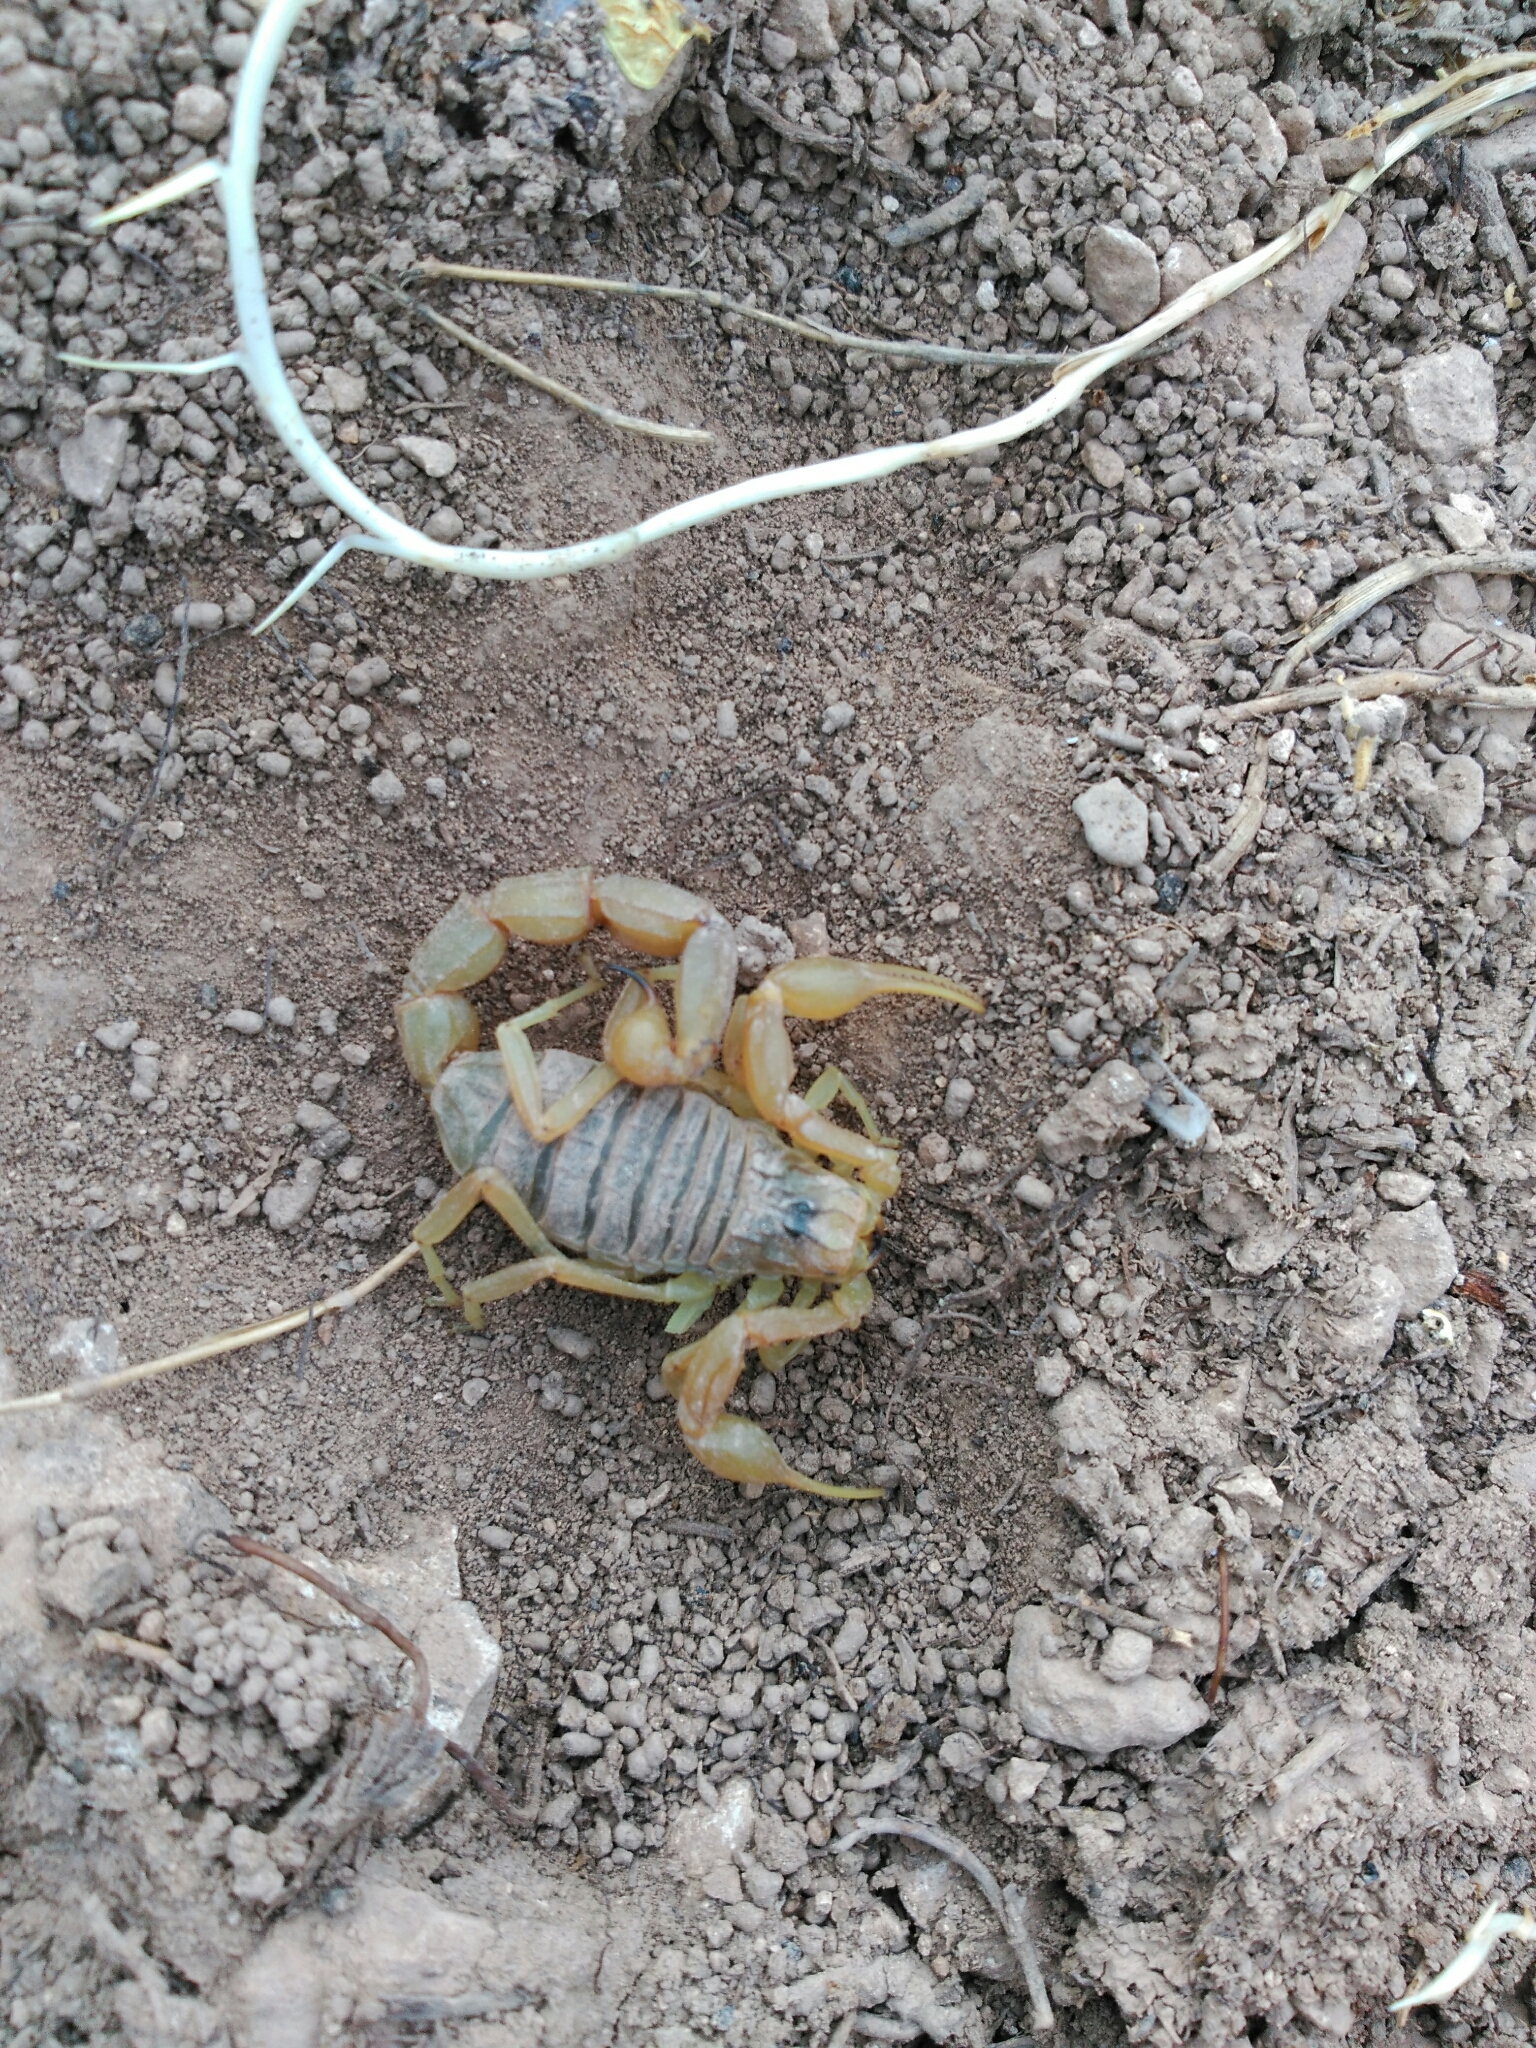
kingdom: Animalia
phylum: Arthropoda
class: Arachnida
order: Scorpiones
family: Buthidae
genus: Buthus
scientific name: Buthus occitanus
